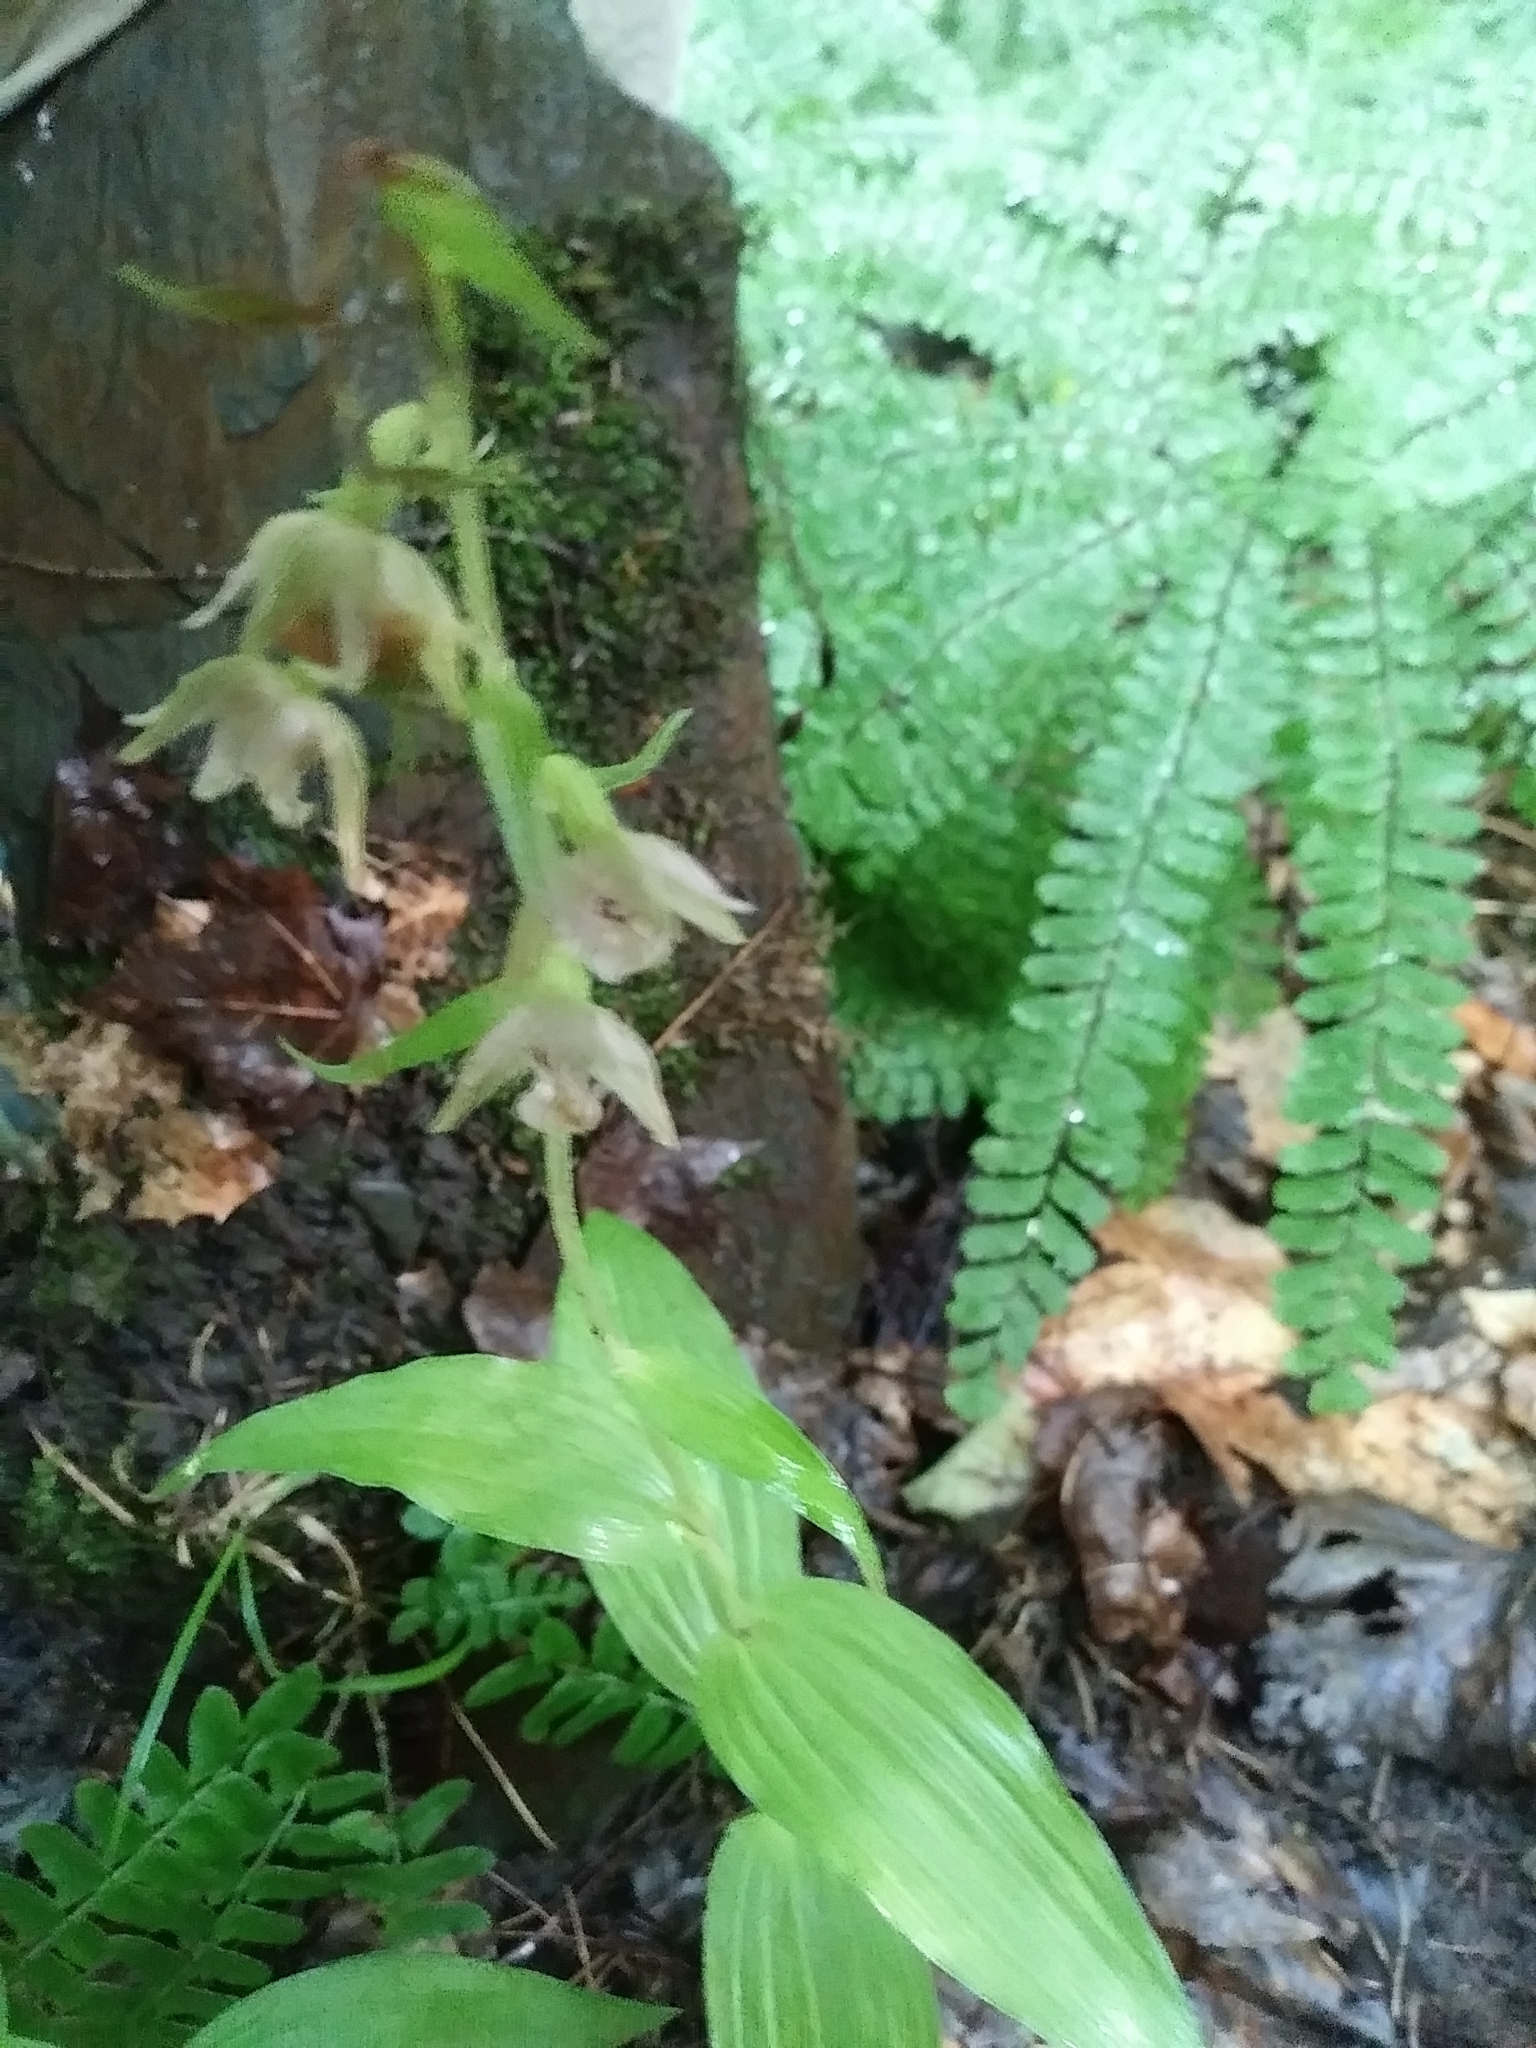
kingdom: Plantae
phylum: Tracheophyta
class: Liliopsida
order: Asparagales
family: Orchidaceae
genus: Epipactis
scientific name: Epipactis helleborine
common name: Broad-leaved helleborine
